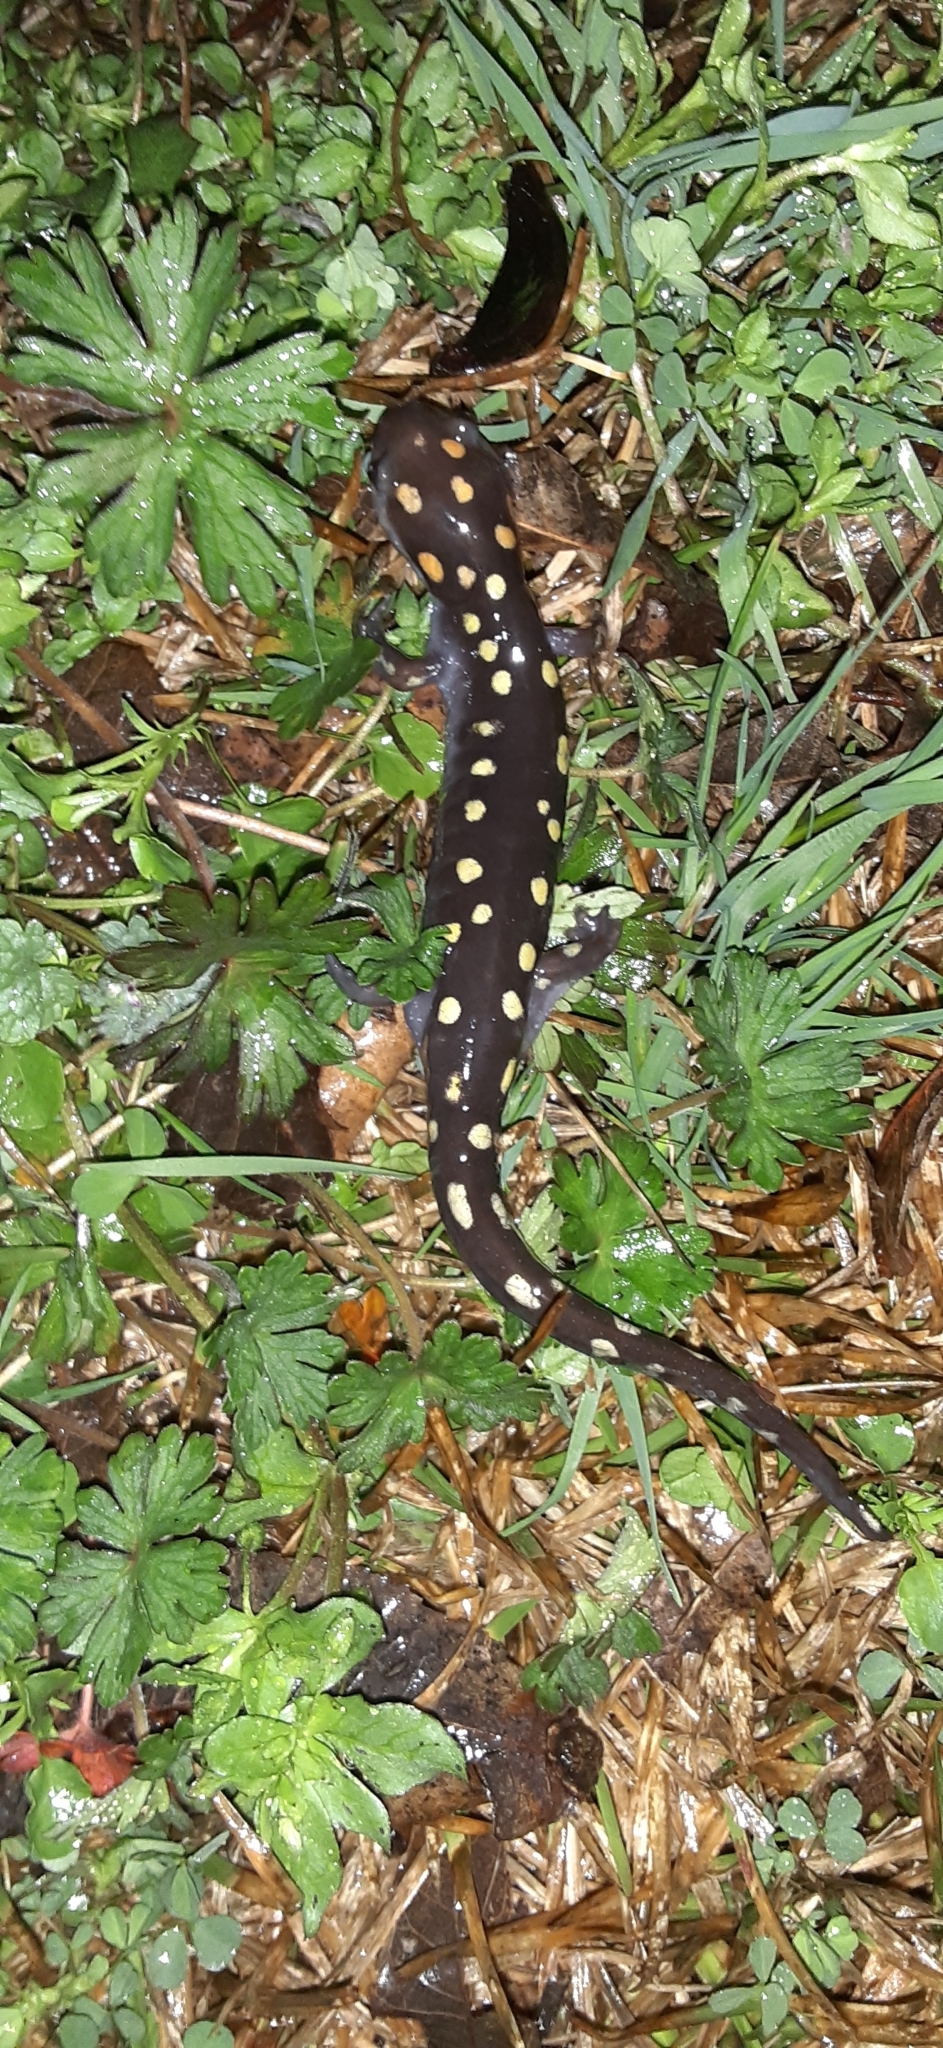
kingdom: Animalia
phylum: Chordata
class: Amphibia
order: Caudata
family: Ambystomatidae
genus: Ambystoma
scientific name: Ambystoma maculatum
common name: Spotted salamander
